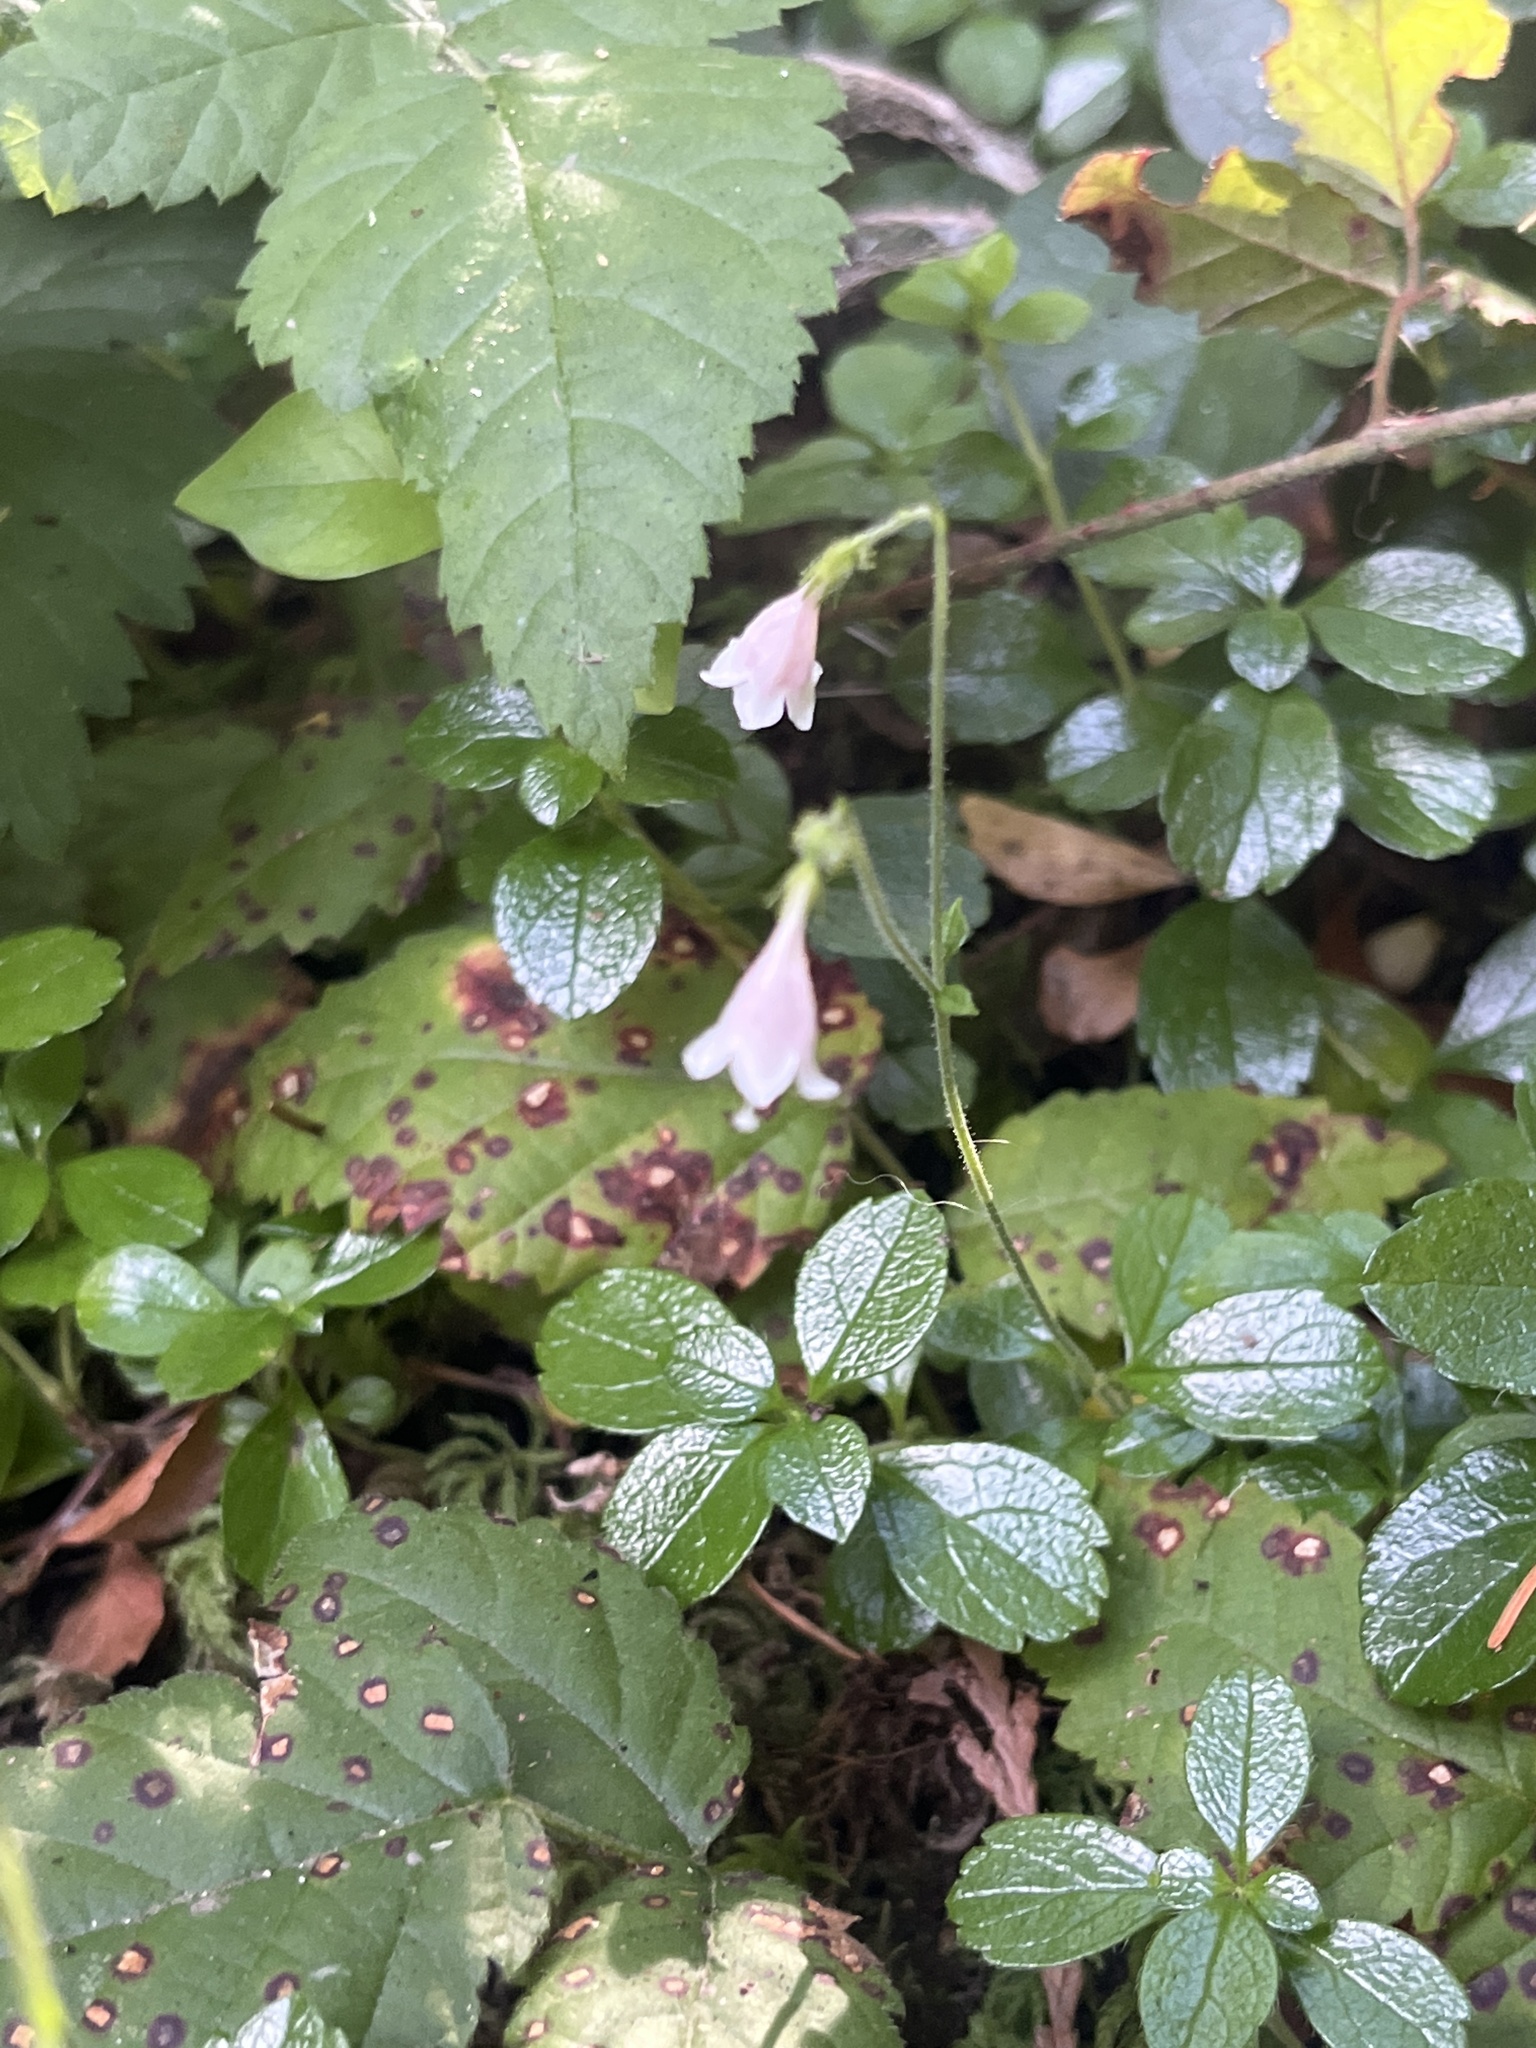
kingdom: Plantae
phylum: Tracheophyta
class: Magnoliopsida
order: Dipsacales
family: Caprifoliaceae
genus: Linnaea
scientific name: Linnaea borealis
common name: Twinflower
